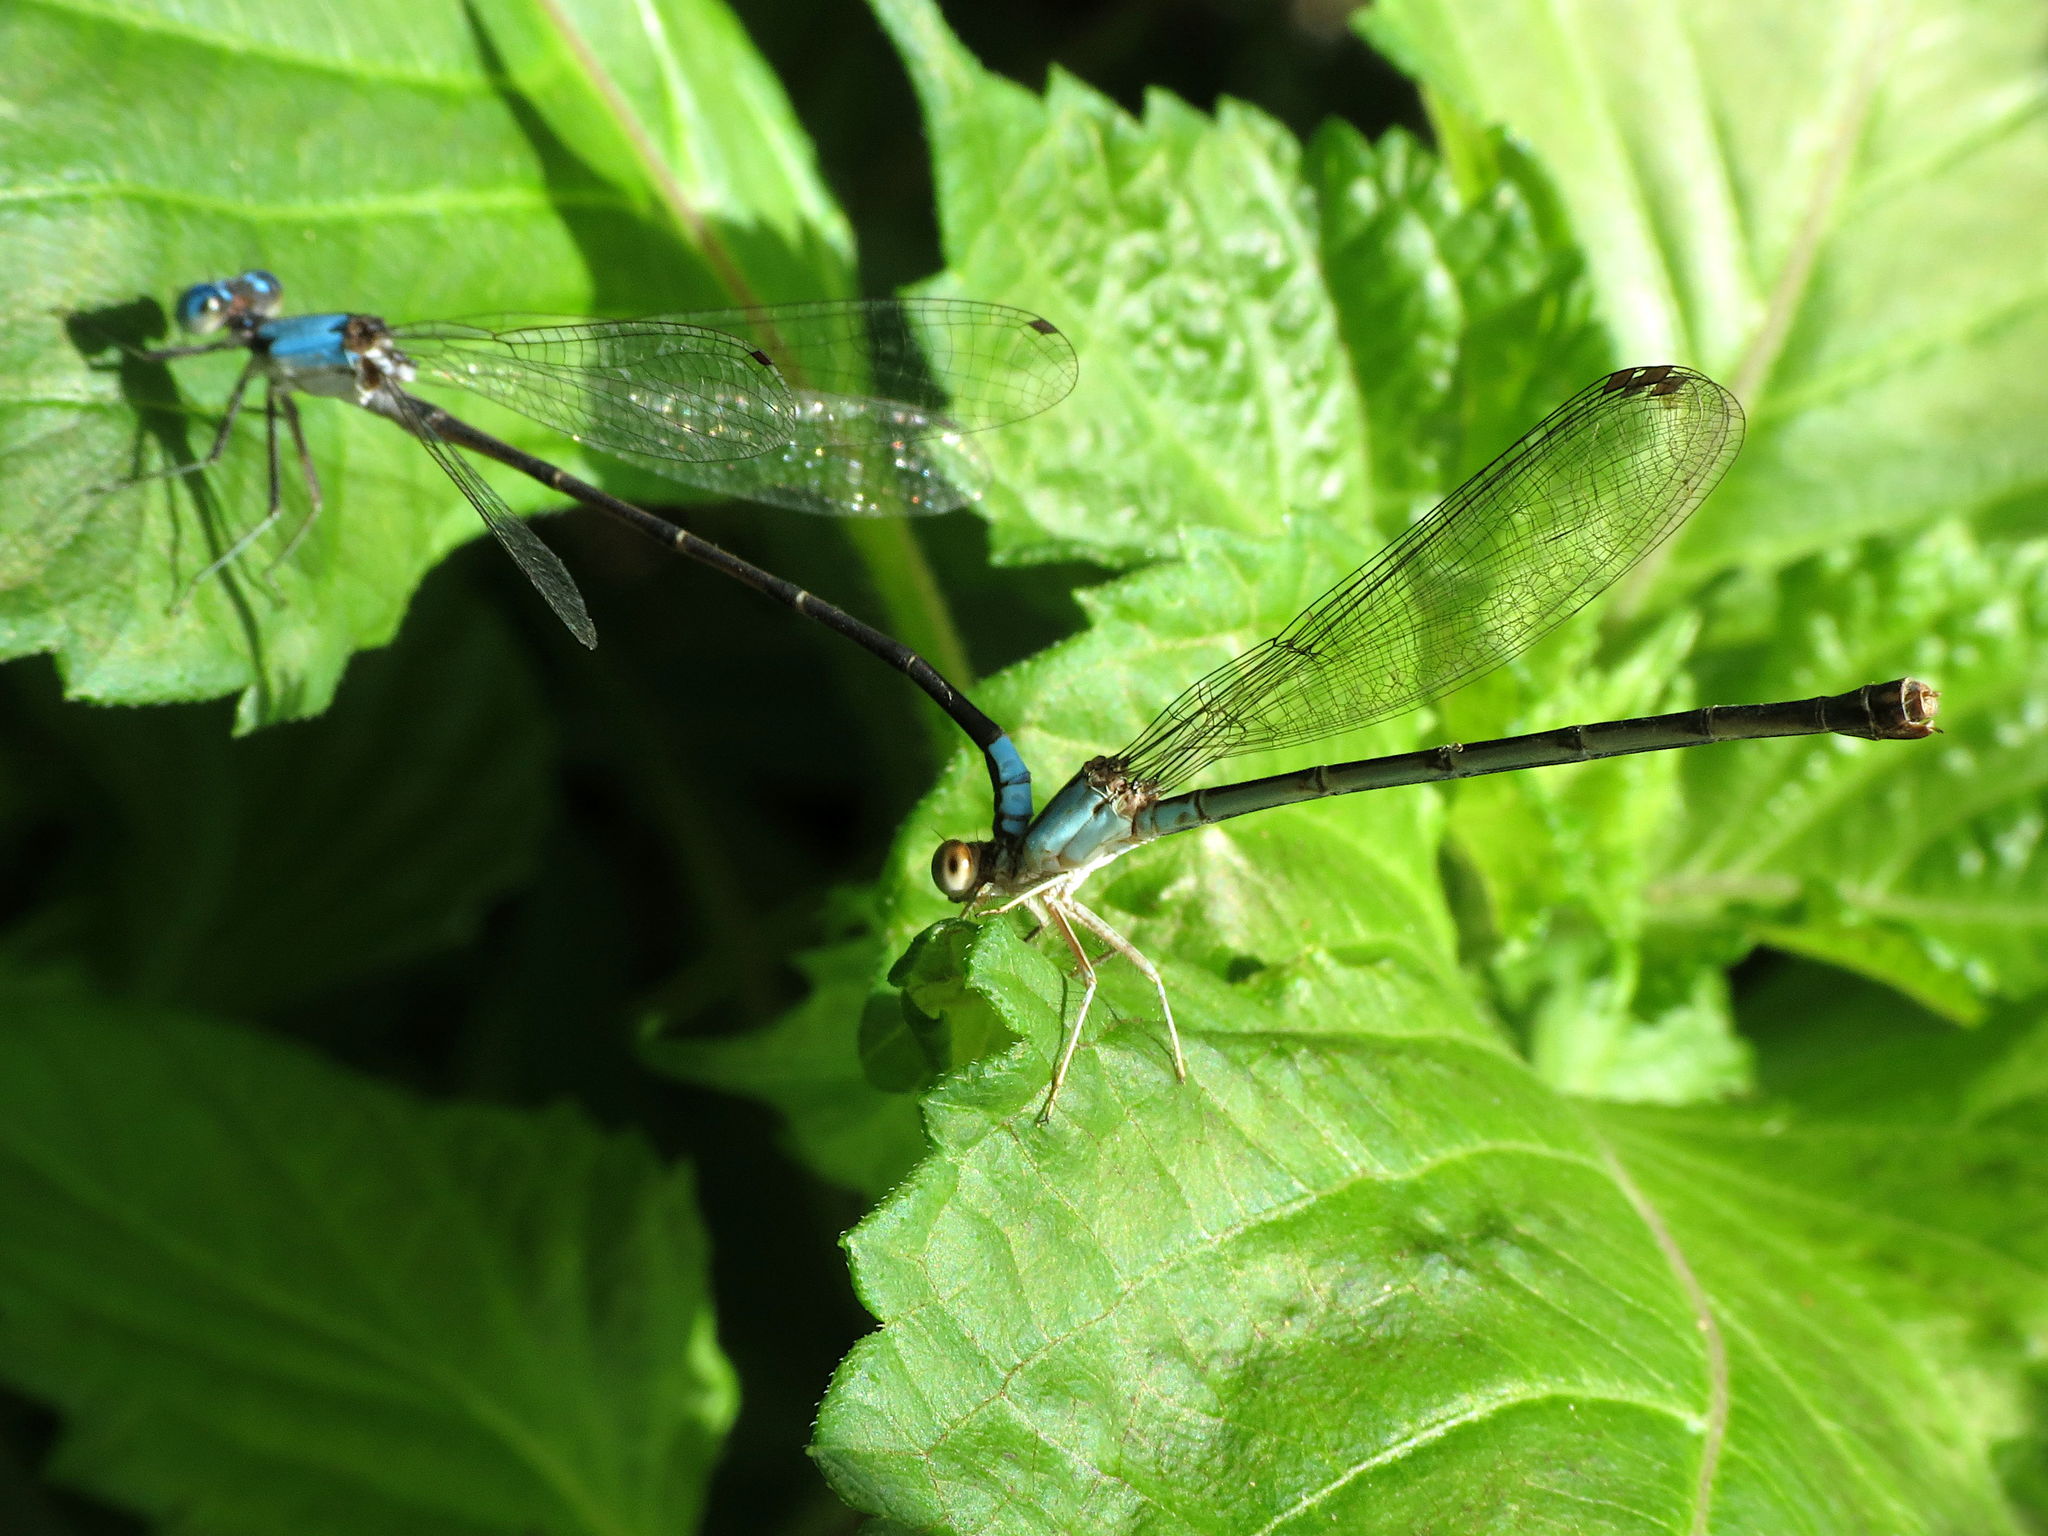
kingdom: Animalia
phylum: Arthropoda
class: Insecta
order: Odonata
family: Coenagrionidae
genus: Argia
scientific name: Argia apicalis
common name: Blue-fronted dancer
